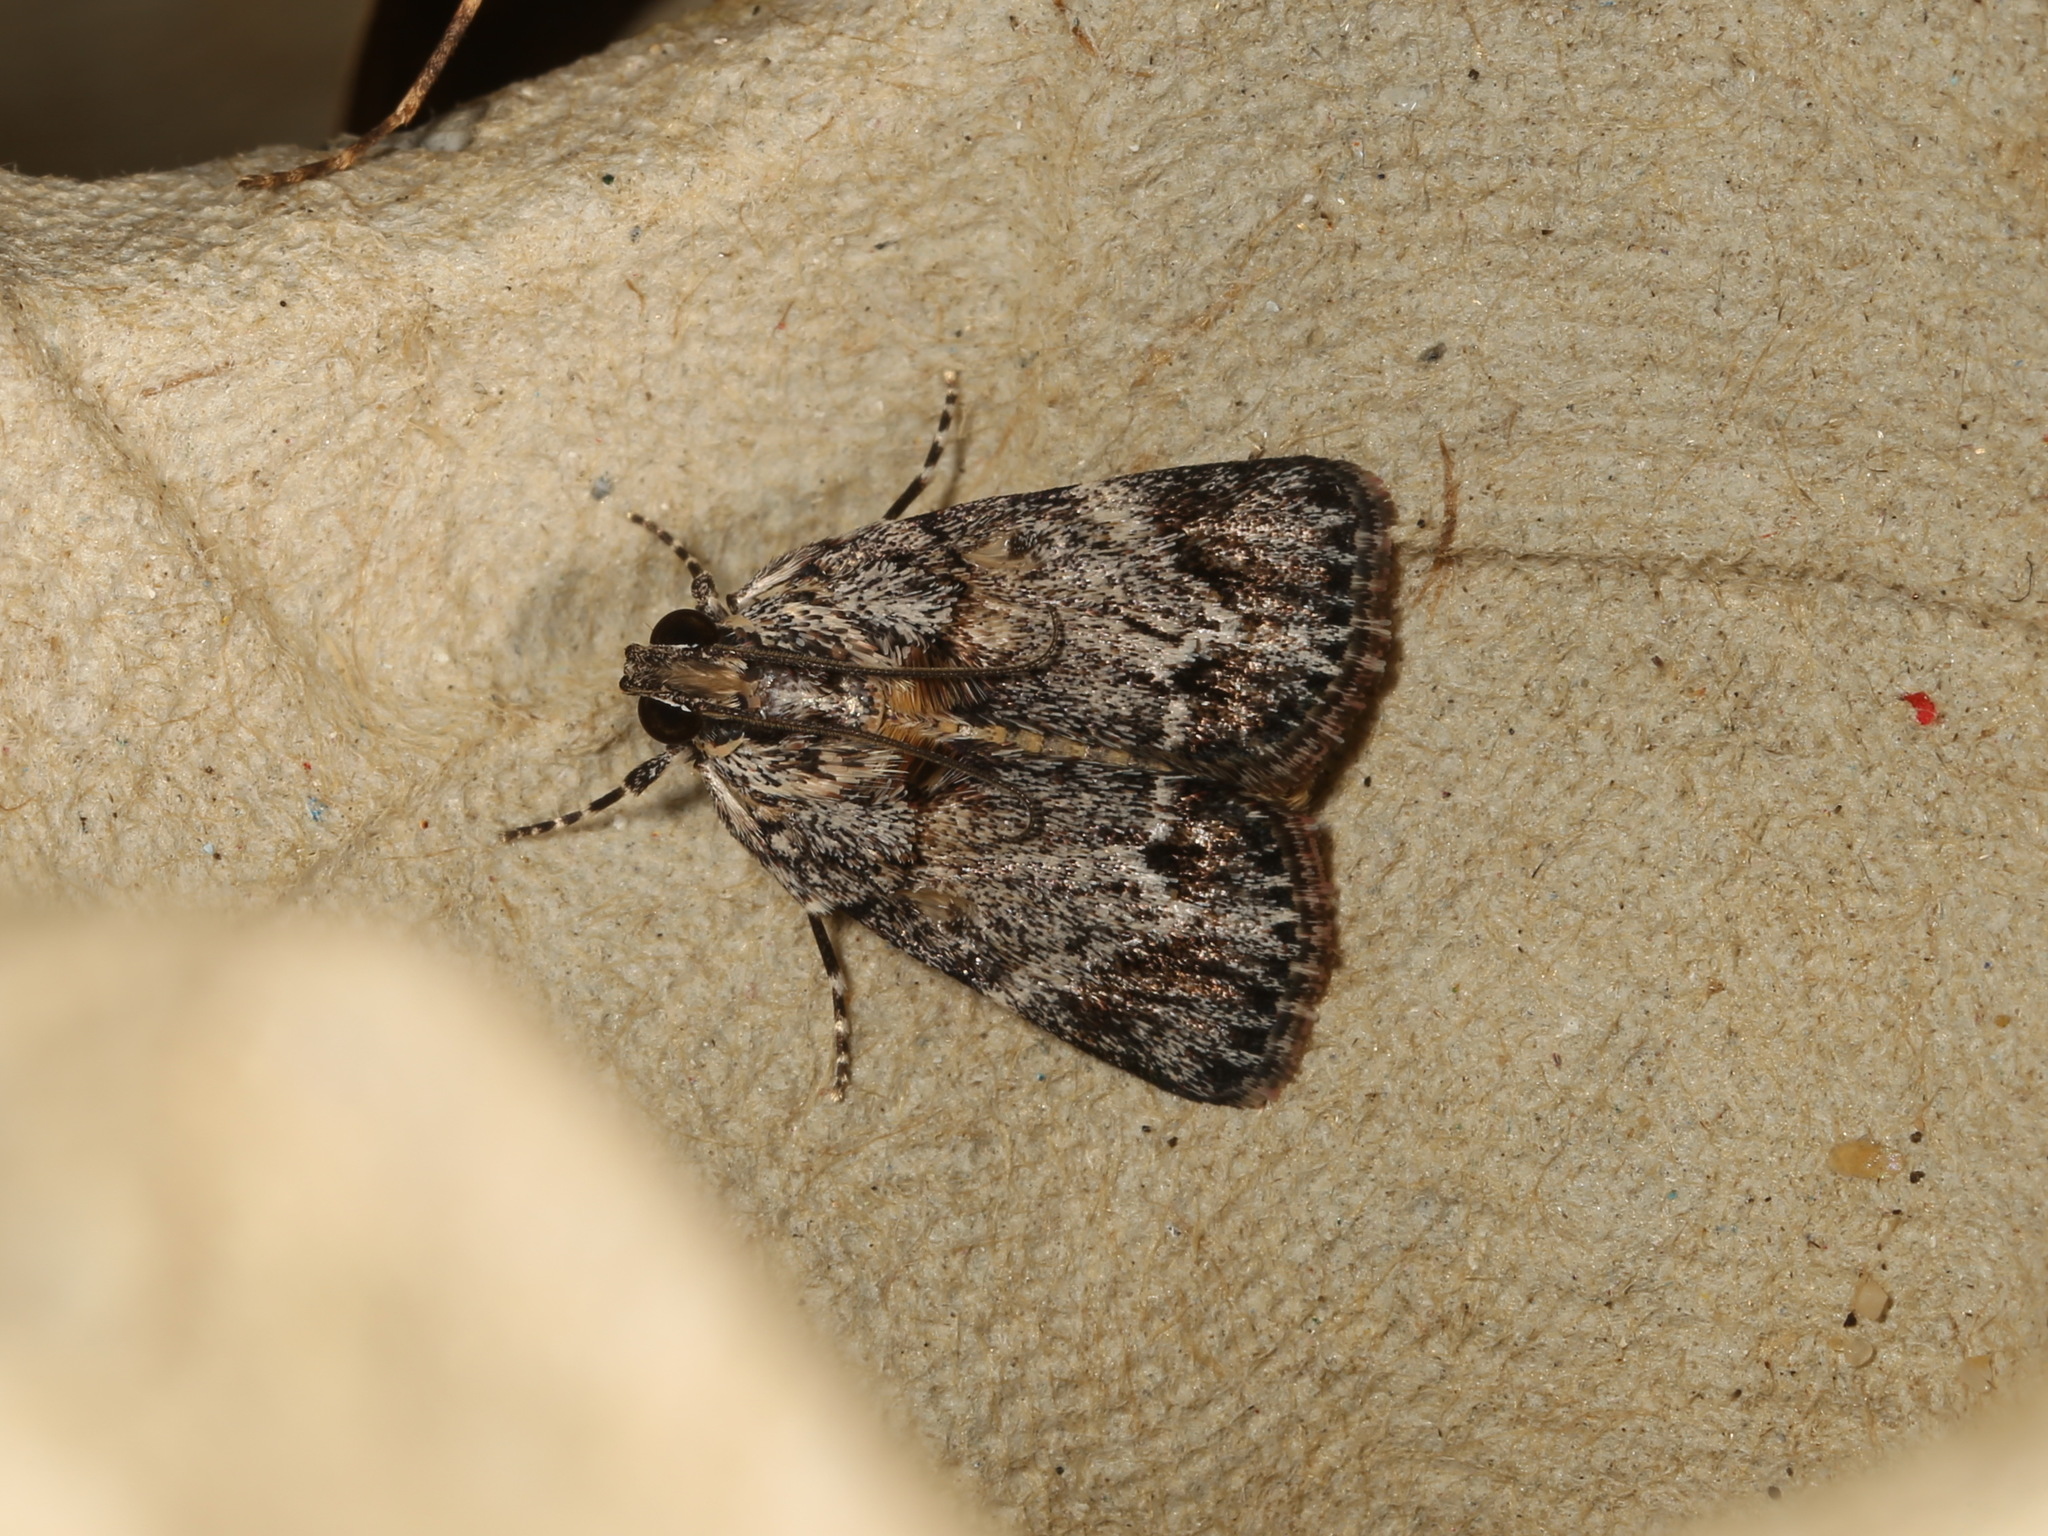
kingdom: Animalia
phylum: Arthropoda
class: Insecta
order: Lepidoptera
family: Pyralidae
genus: Spectrotrota
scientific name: Spectrotrota fimbrialis
